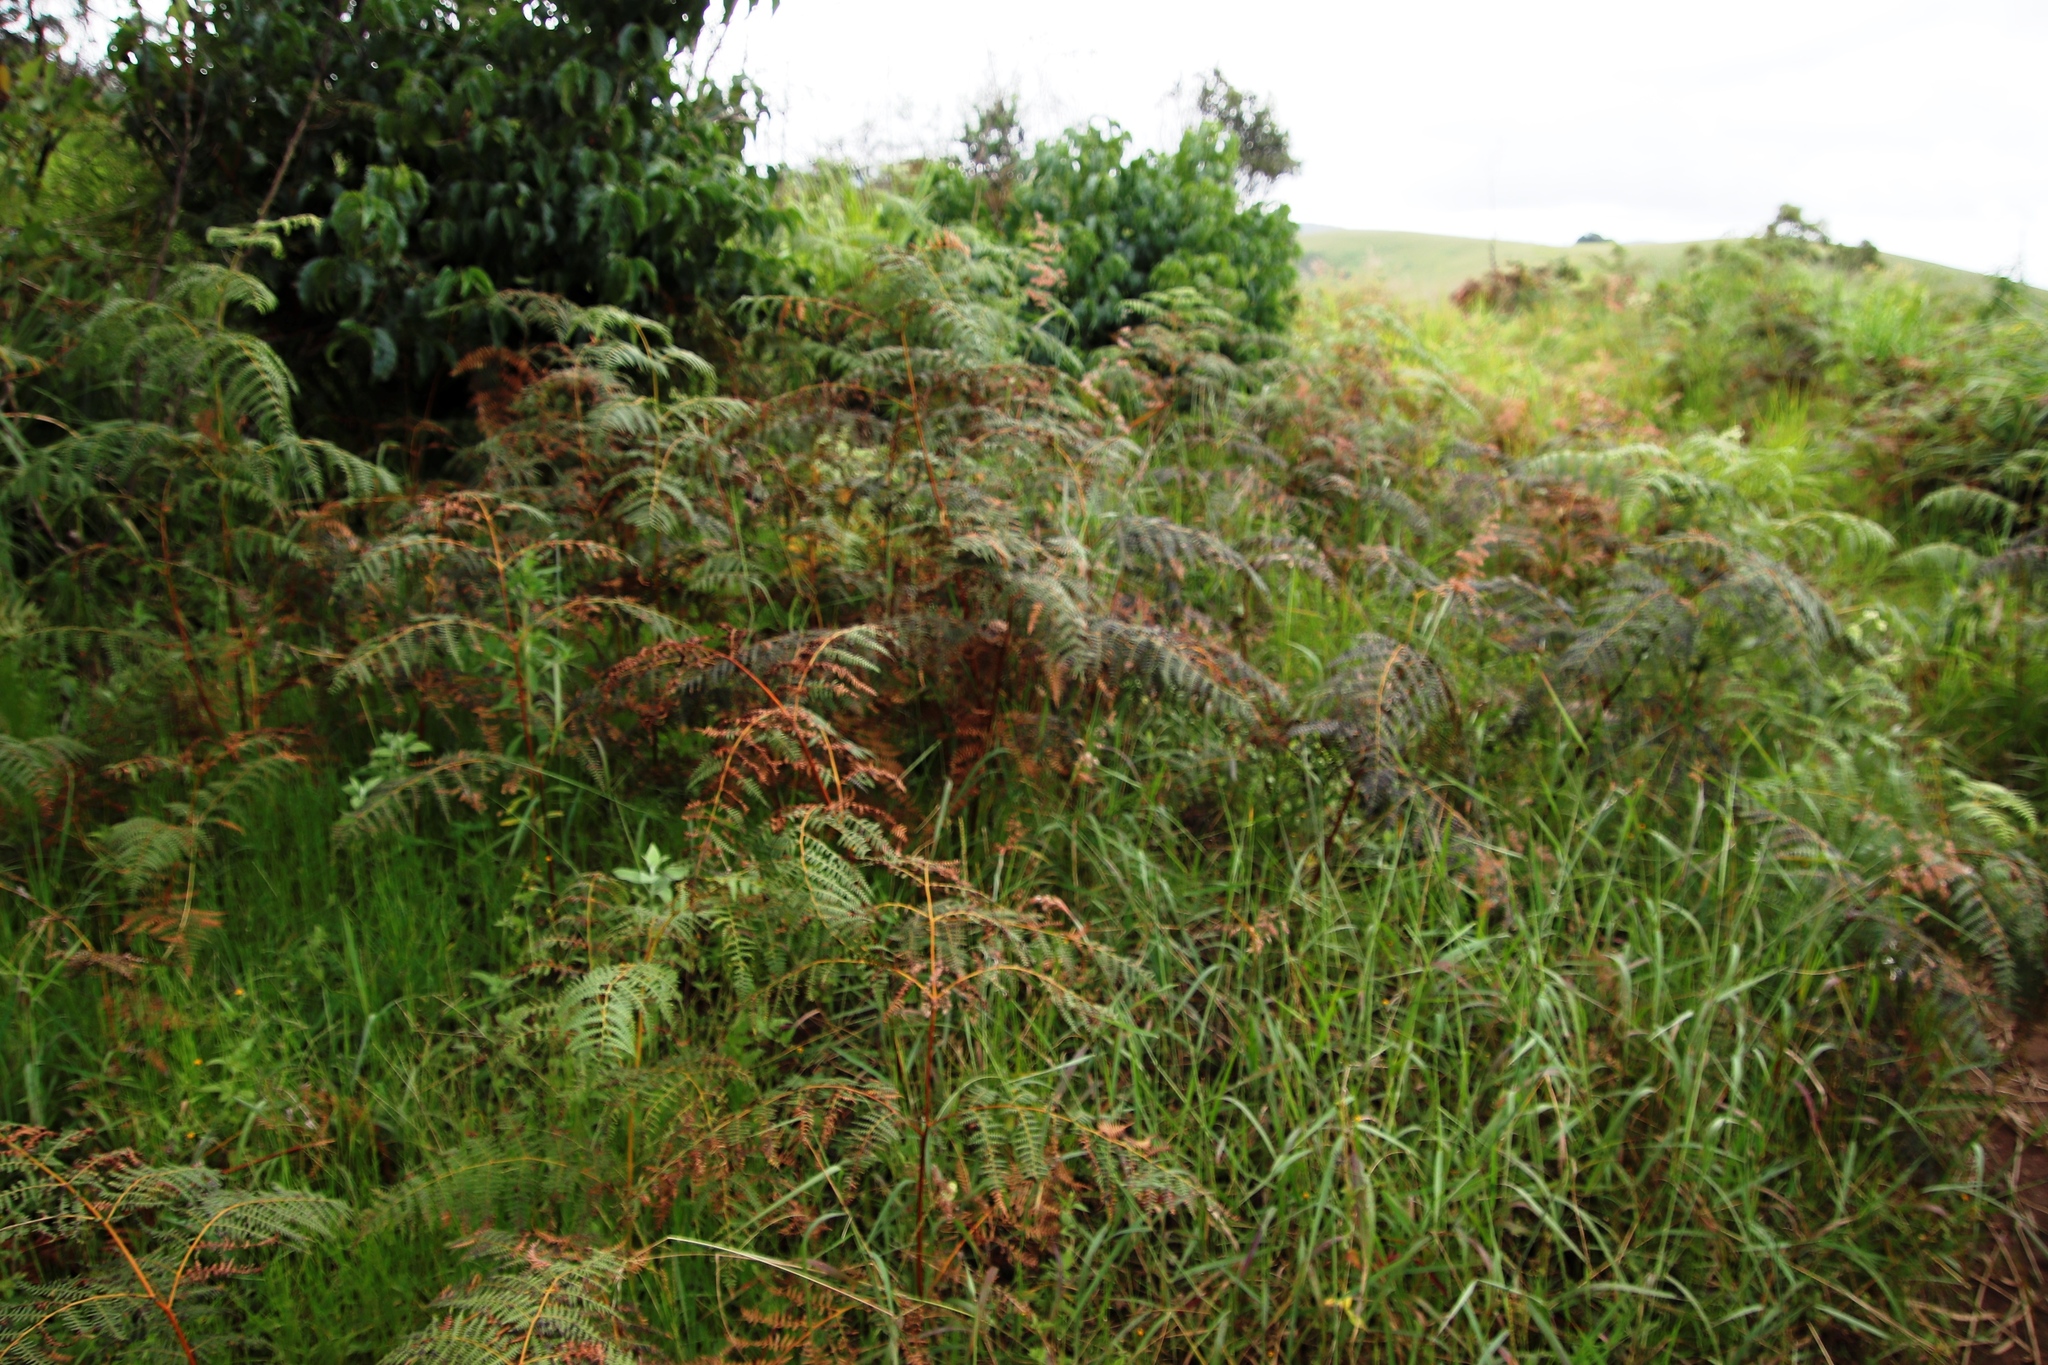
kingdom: Plantae
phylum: Tracheophyta
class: Polypodiopsida
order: Polypodiales
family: Dennstaedtiaceae
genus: Pteridium
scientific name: Pteridium aquilinum
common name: Bracken
